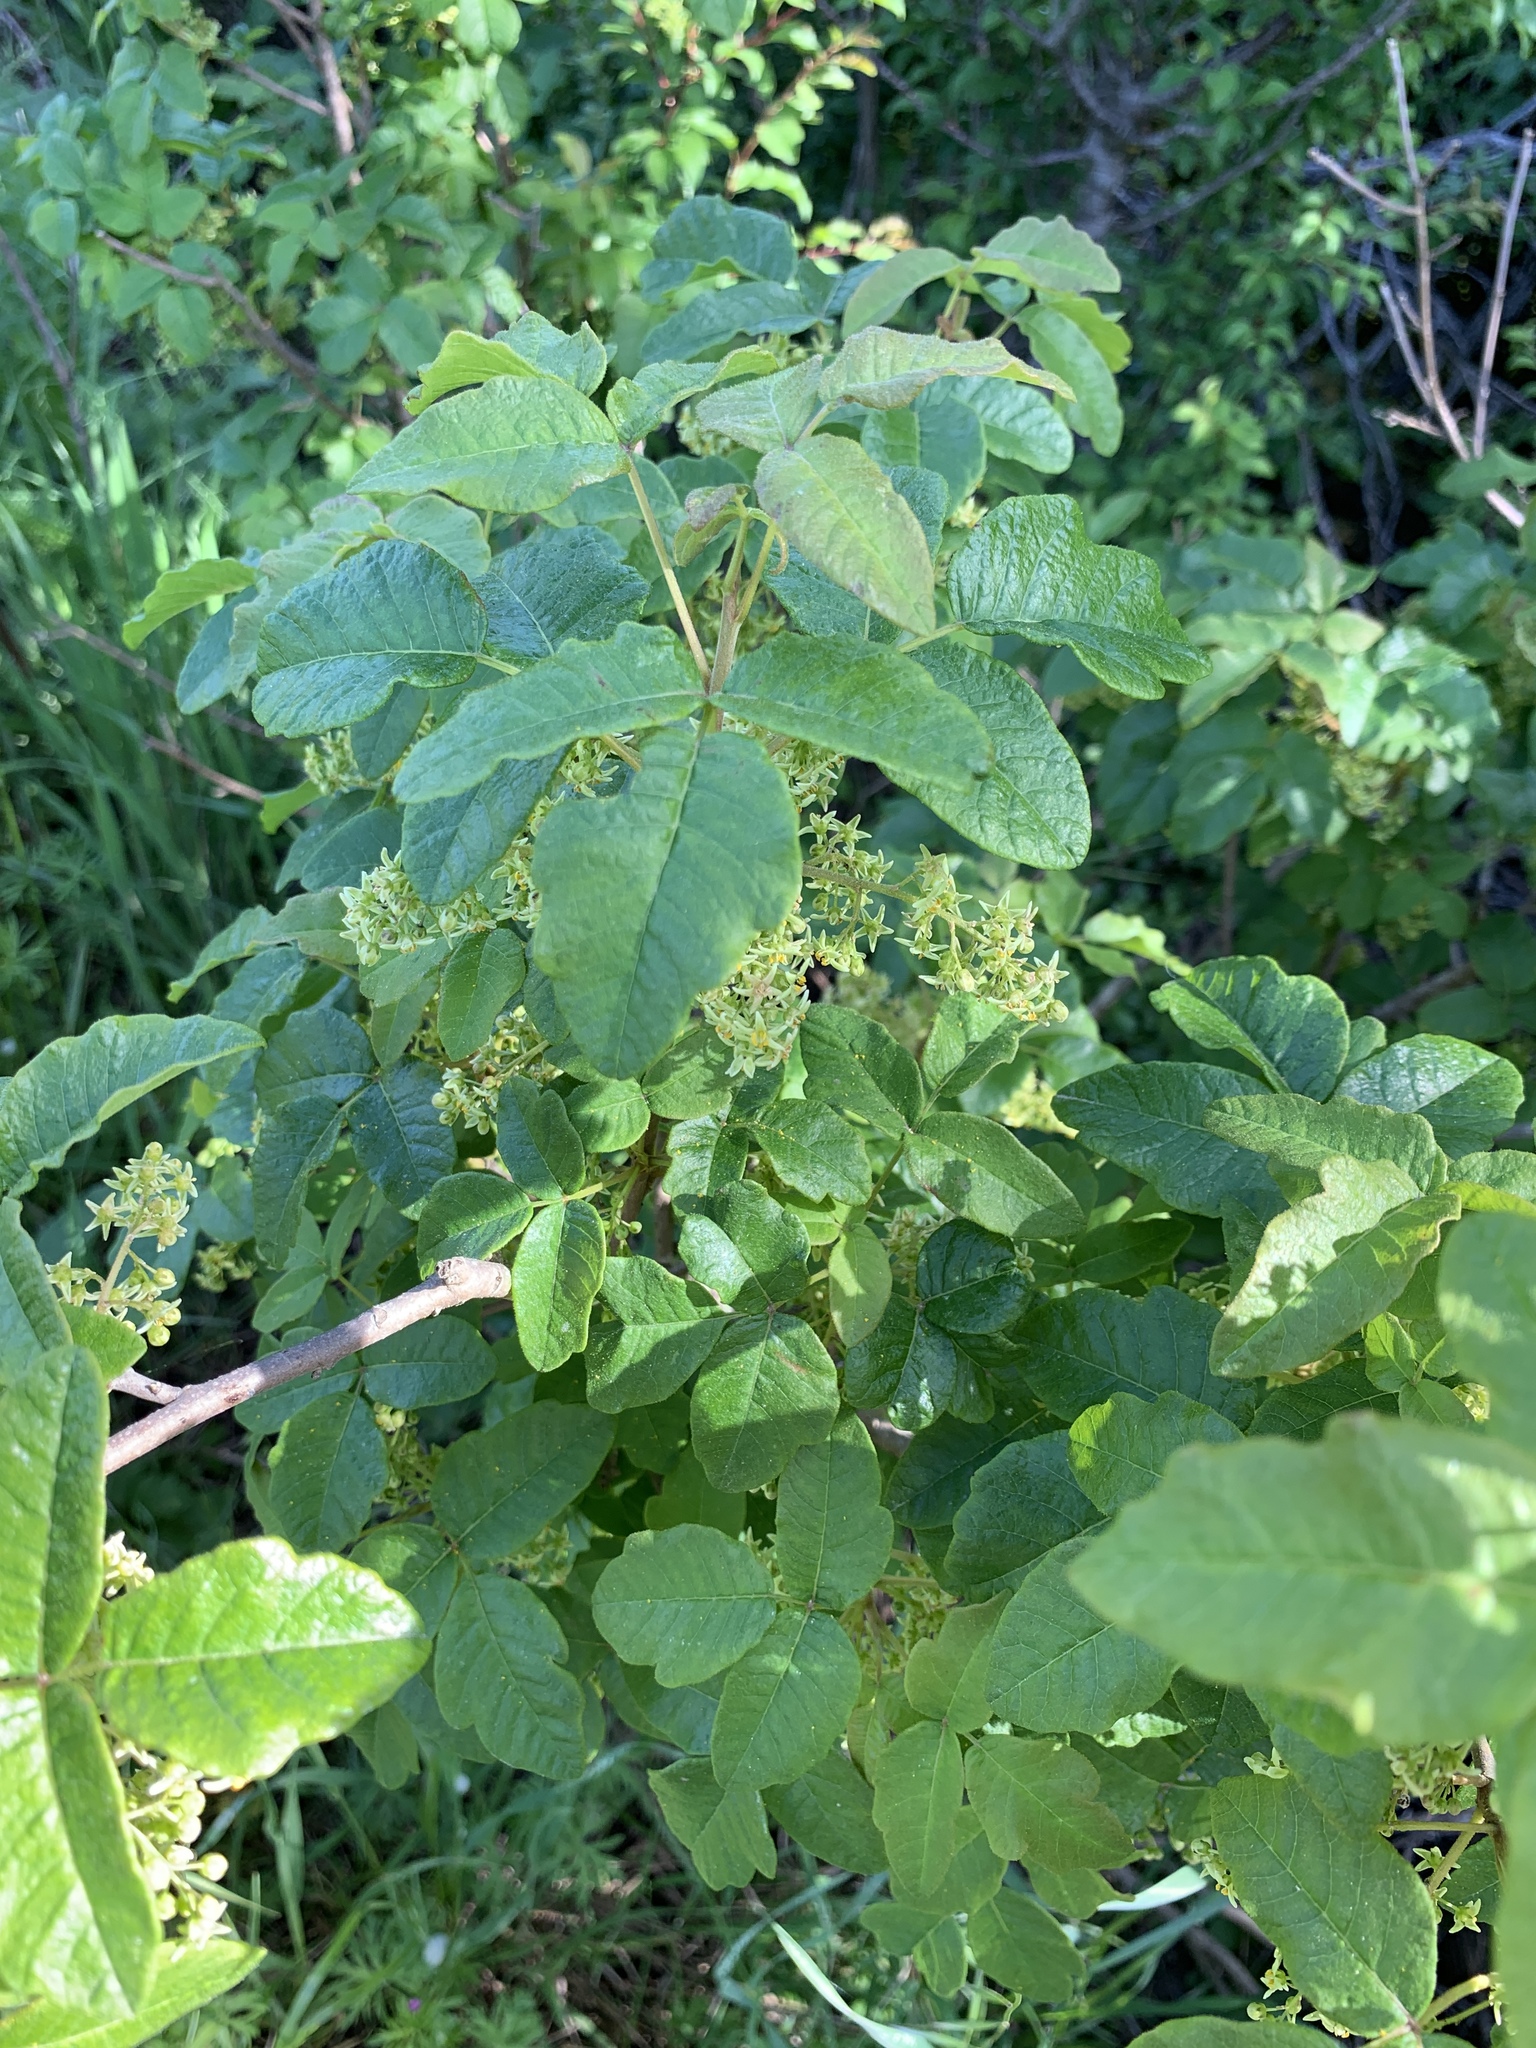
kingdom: Plantae
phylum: Tracheophyta
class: Magnoliopsida
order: Sapindales
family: Anacardiaceae
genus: Toxicodendron
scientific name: Toxicodendron diversilobum
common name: Pacific poison-oak
